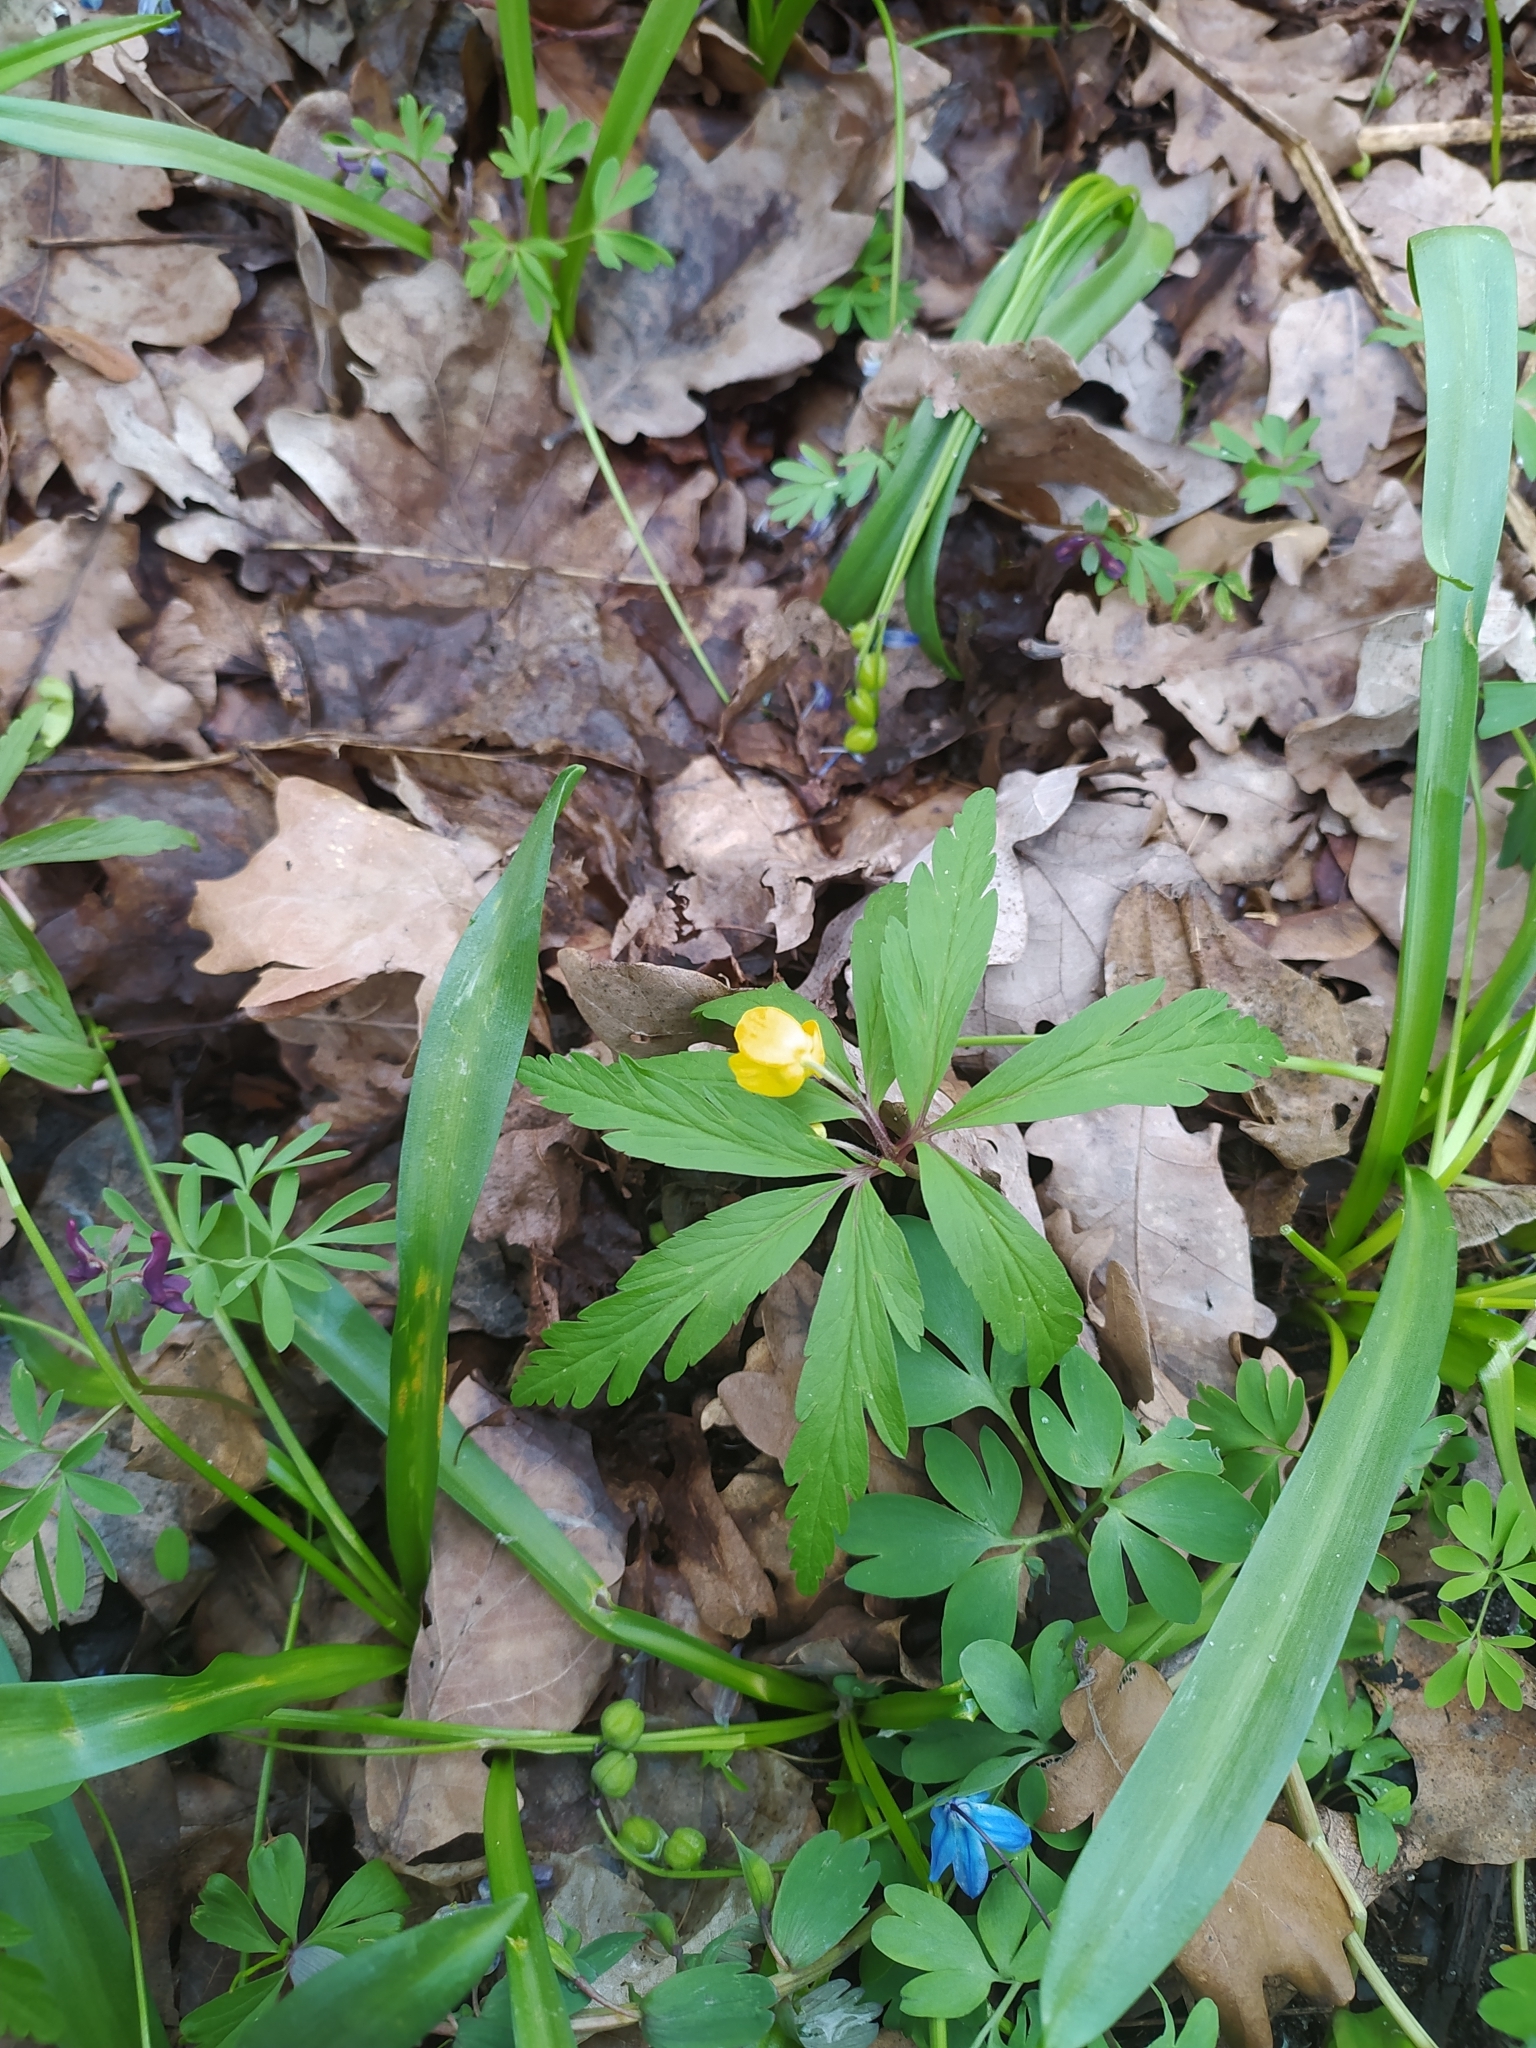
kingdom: Plantae
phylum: Tracheophyta
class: Magnoliopsida
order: Ranunculales
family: Ranunculaceae
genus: Anemone
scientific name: Anemone ranunculoides
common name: Yellow anemone
